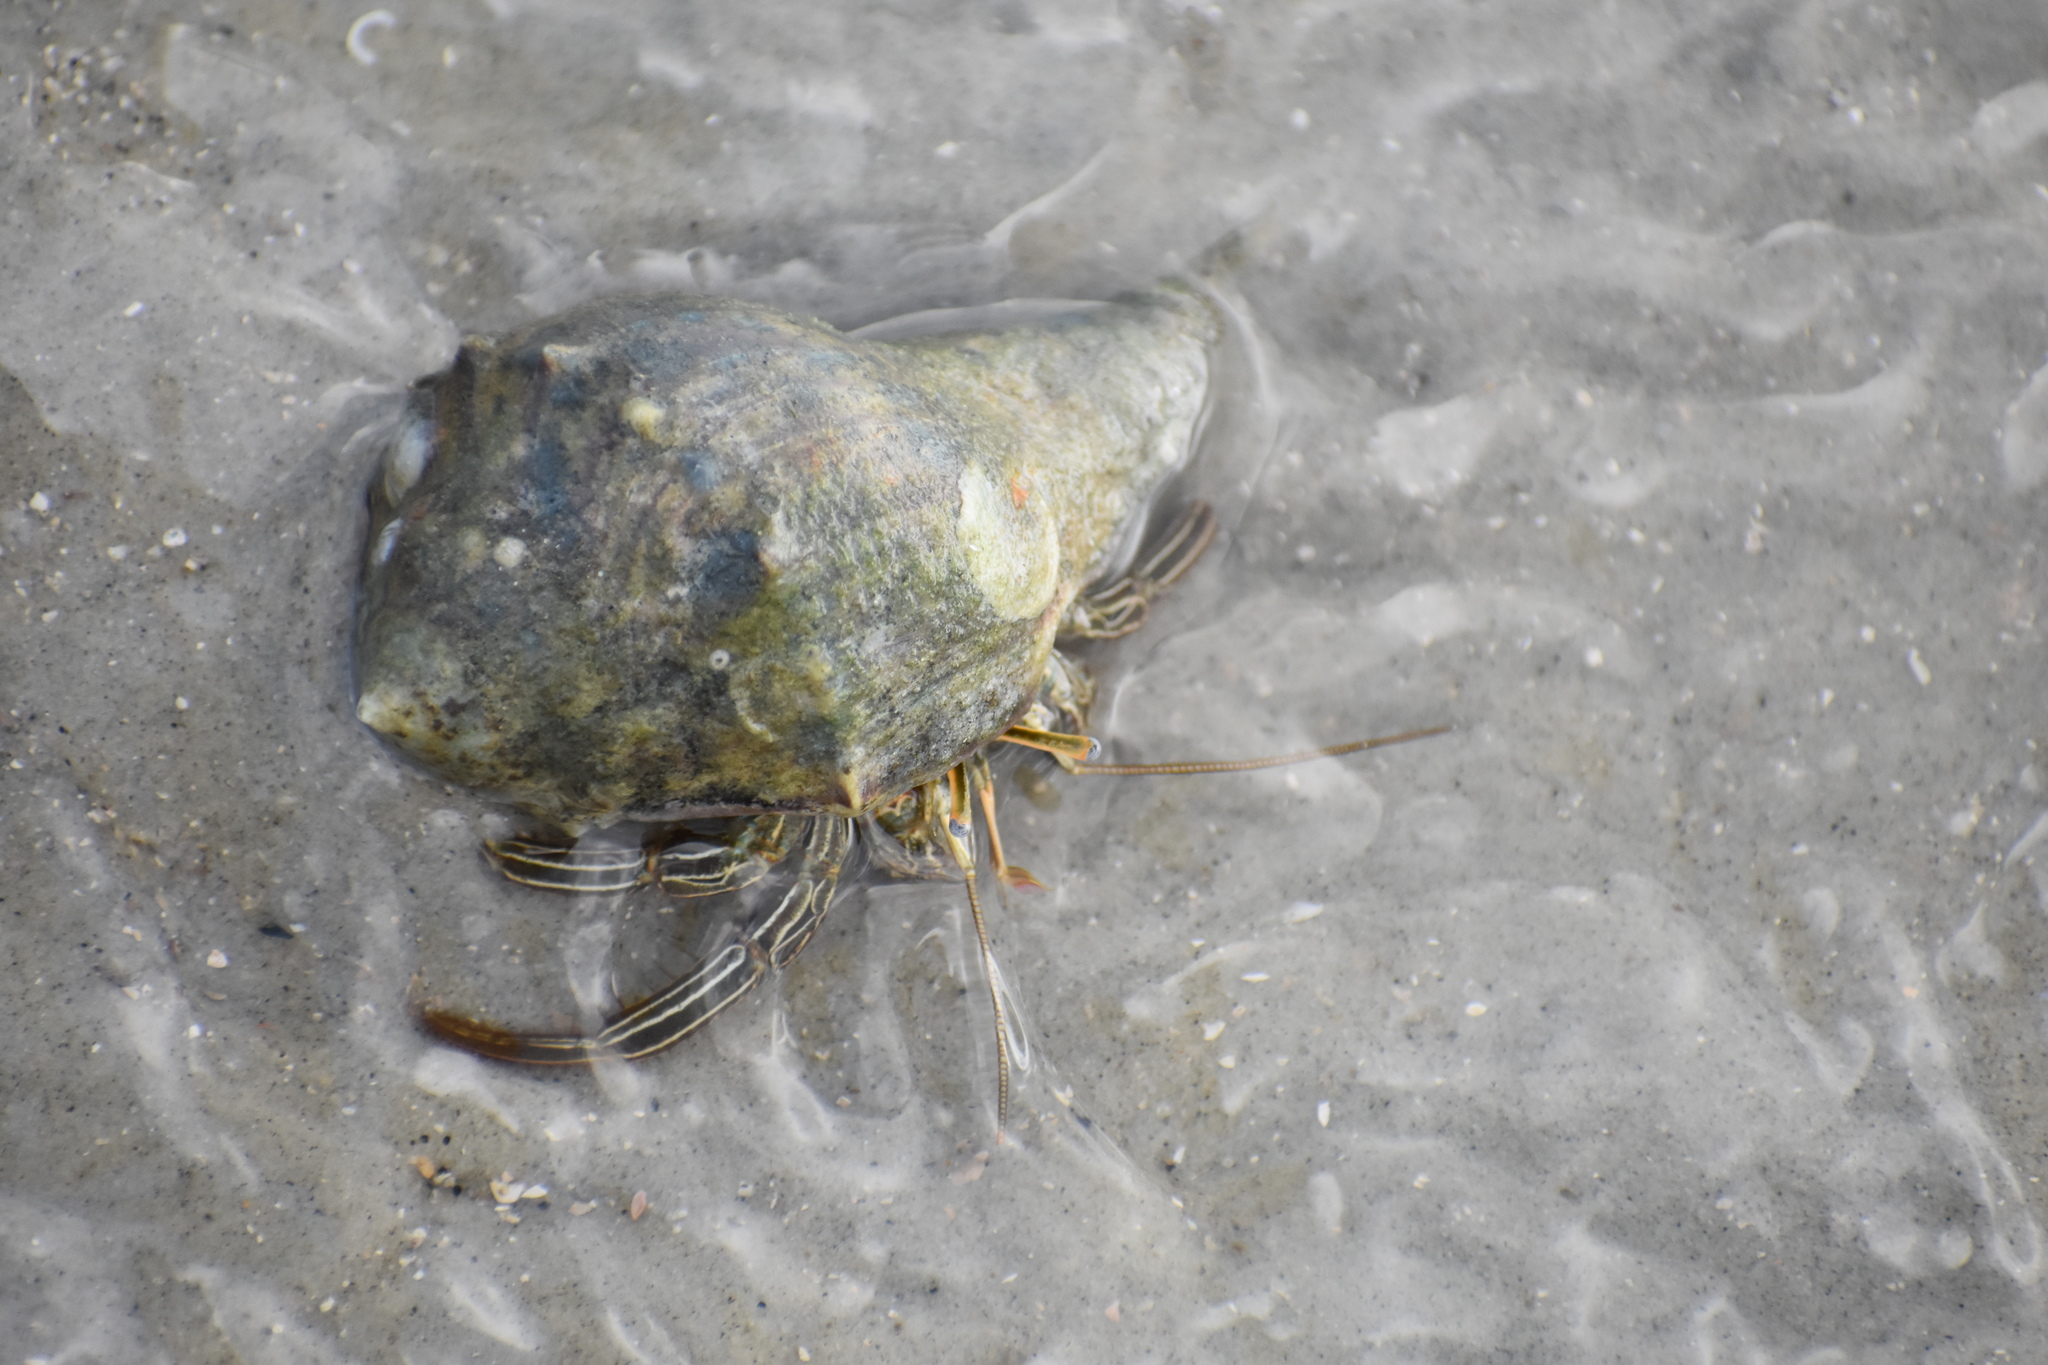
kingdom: Animalia
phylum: Arthropoda
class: Malacostraca
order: Decapoda
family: Diogenidae
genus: Clibanarius
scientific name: Clibanarius vittatus
